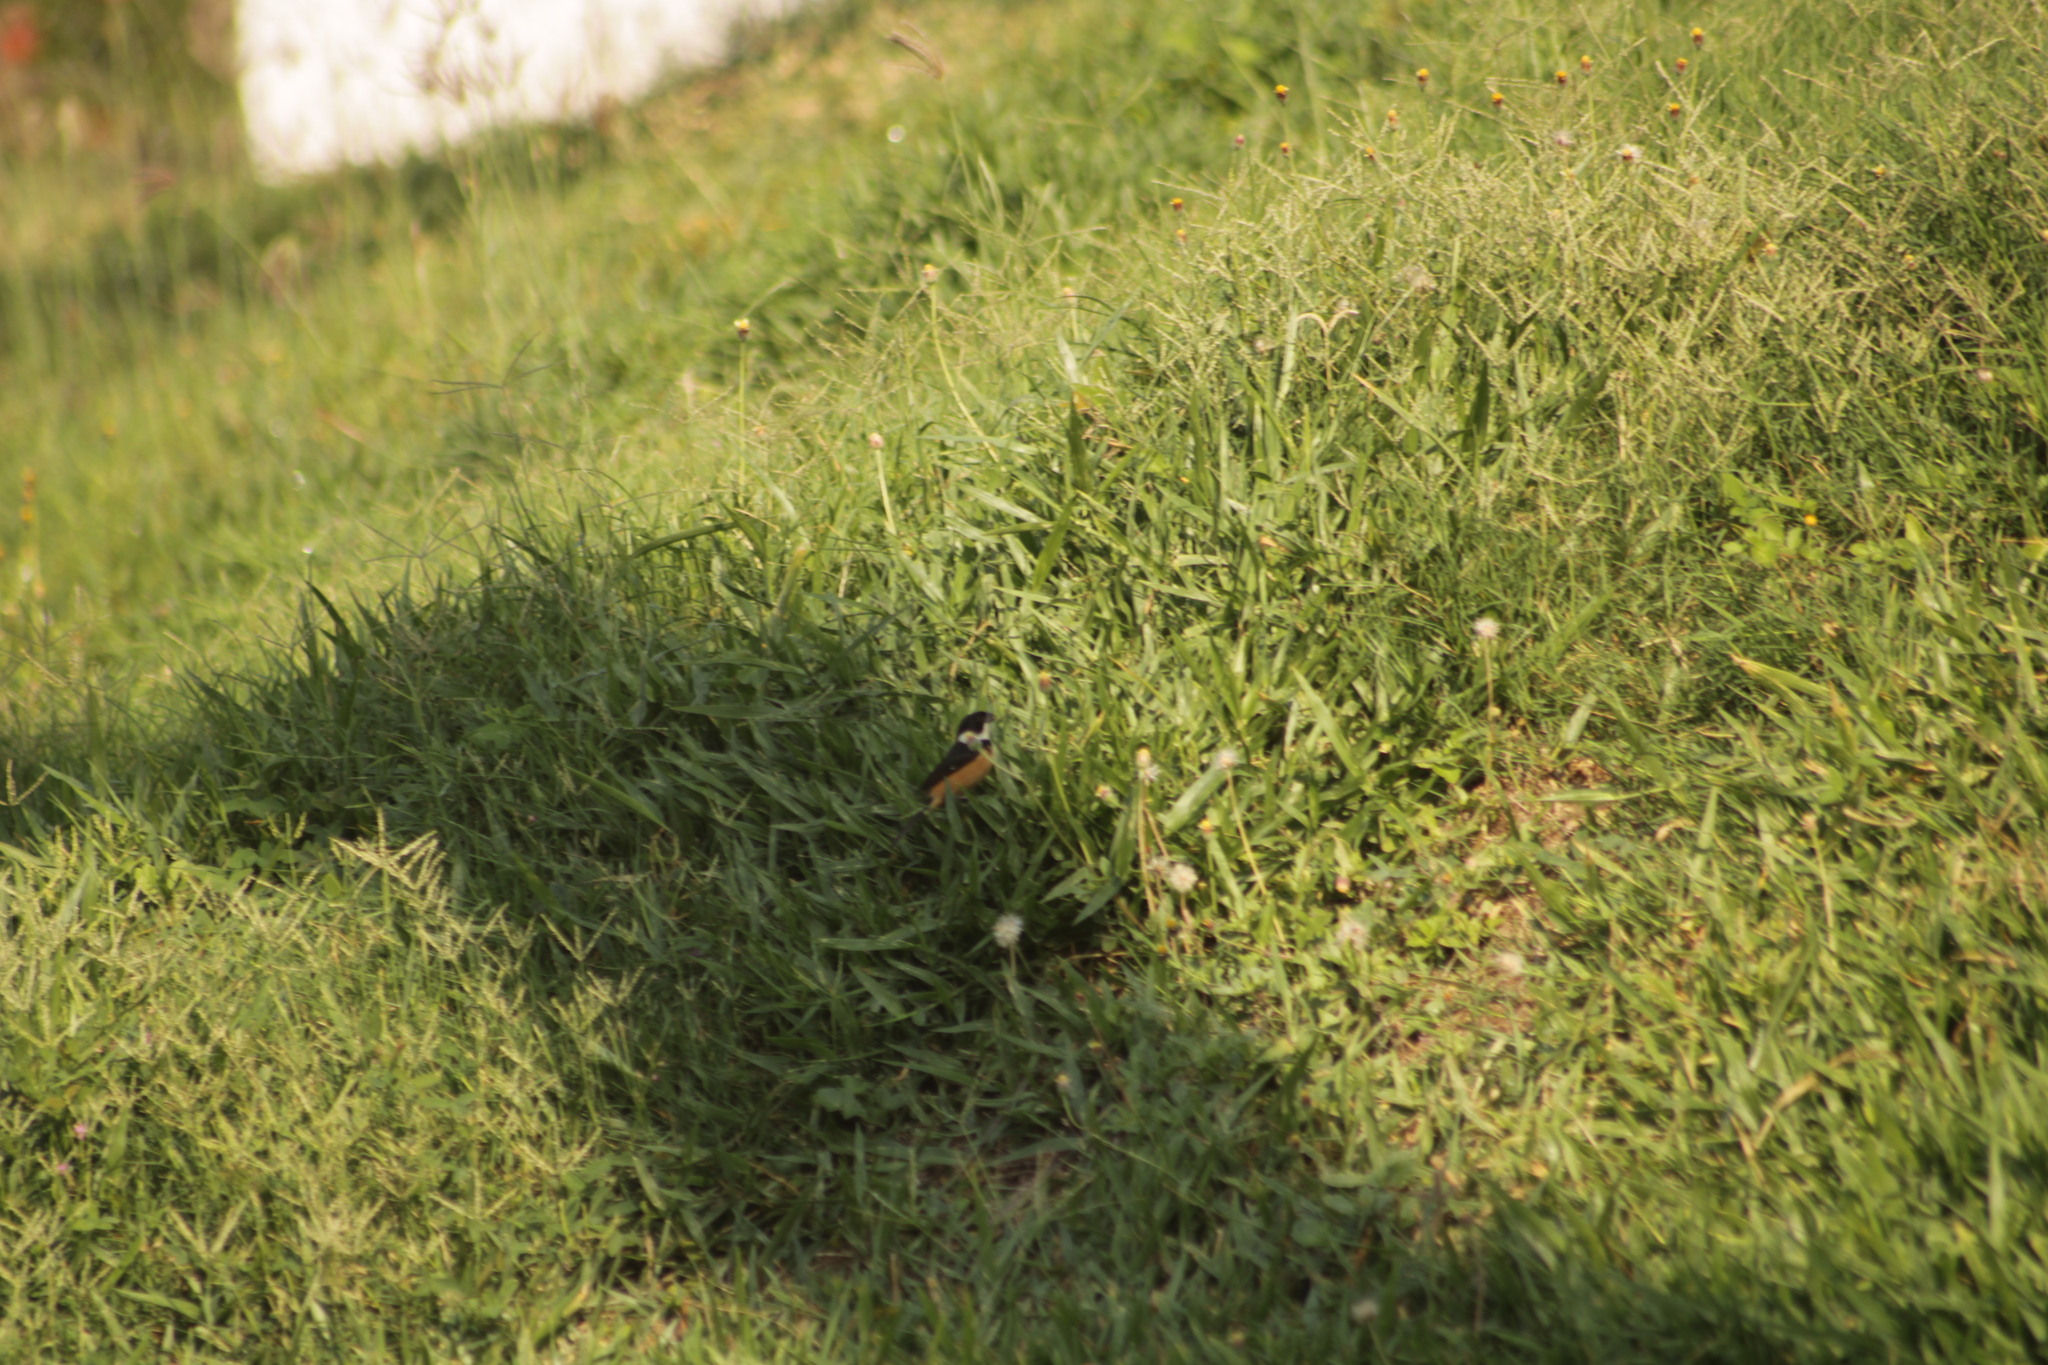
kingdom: Animalia
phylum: Chordata
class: Aves
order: Passeriformes
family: Thraupidae
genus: Sporophila
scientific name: Sporophila torqueola
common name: White-collared seedeater
